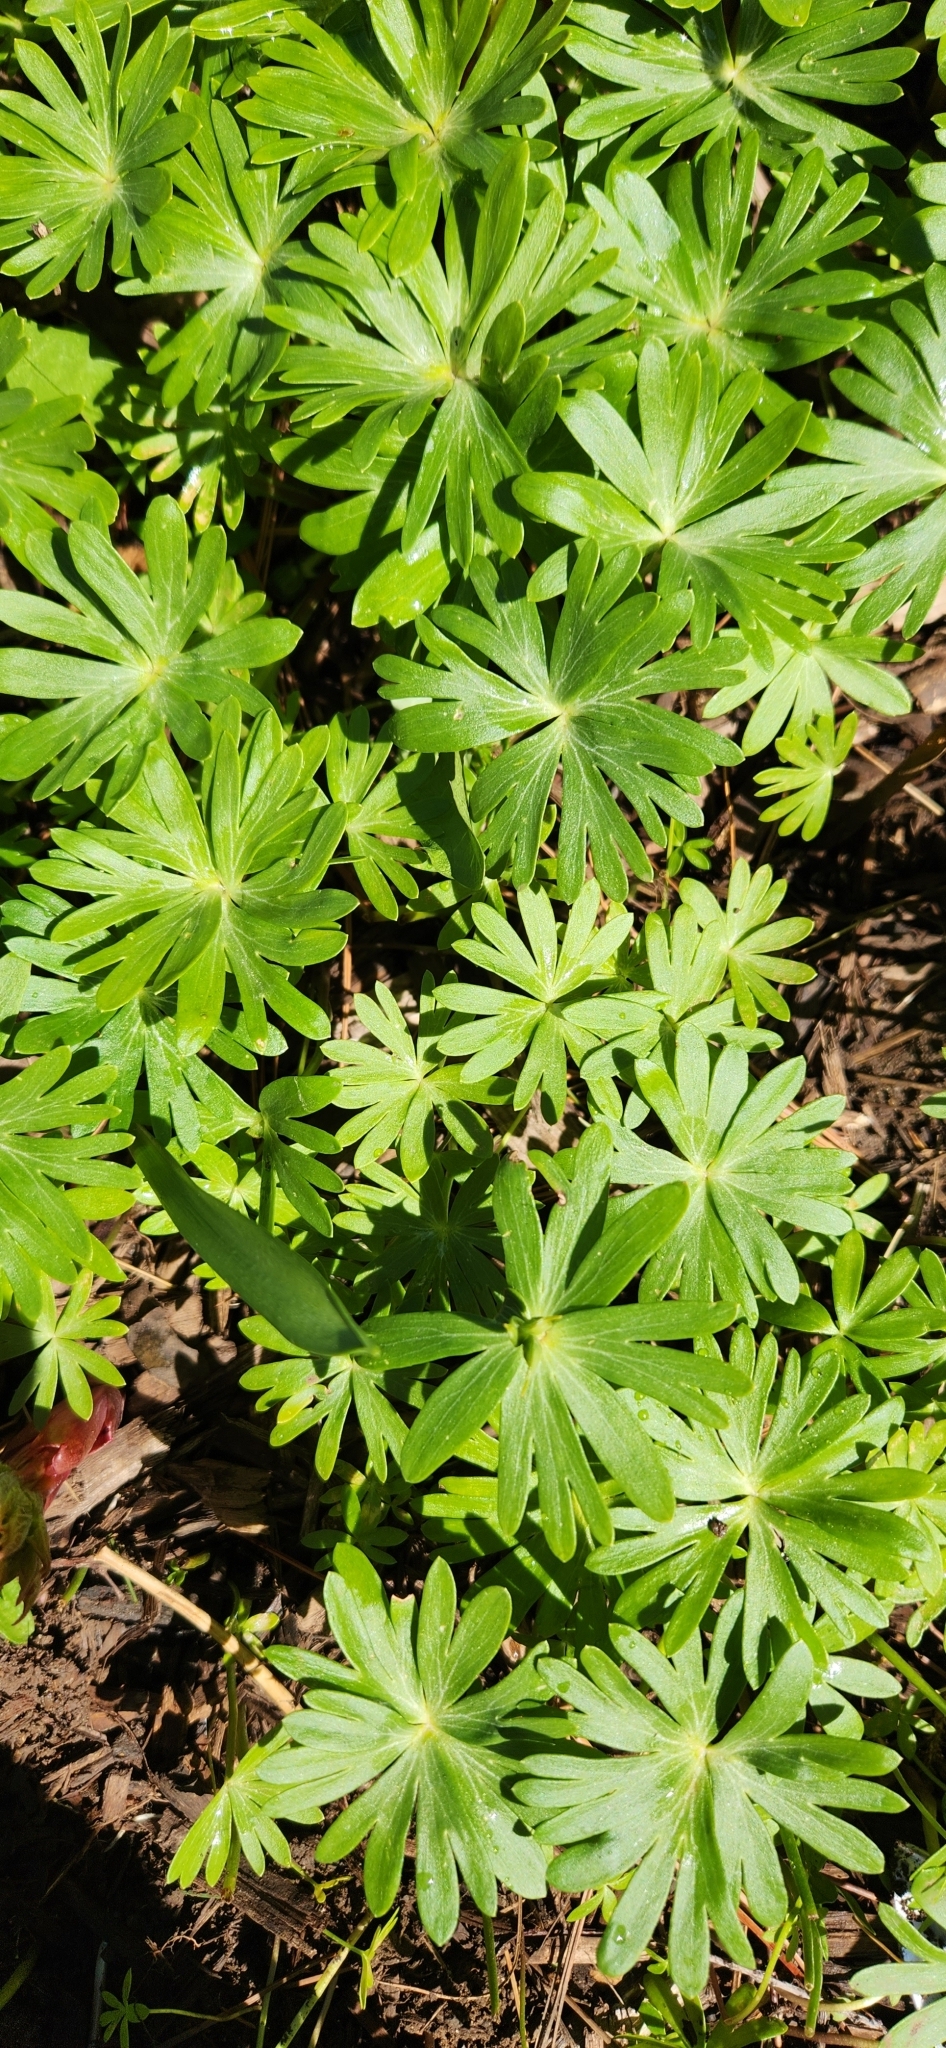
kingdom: Plantae
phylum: Tracheophyta
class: Magnoliopsida
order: Ranunculales
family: Ranunculaceae
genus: Eranthis
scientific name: Eranthis hyemalis
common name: Winter aconite
